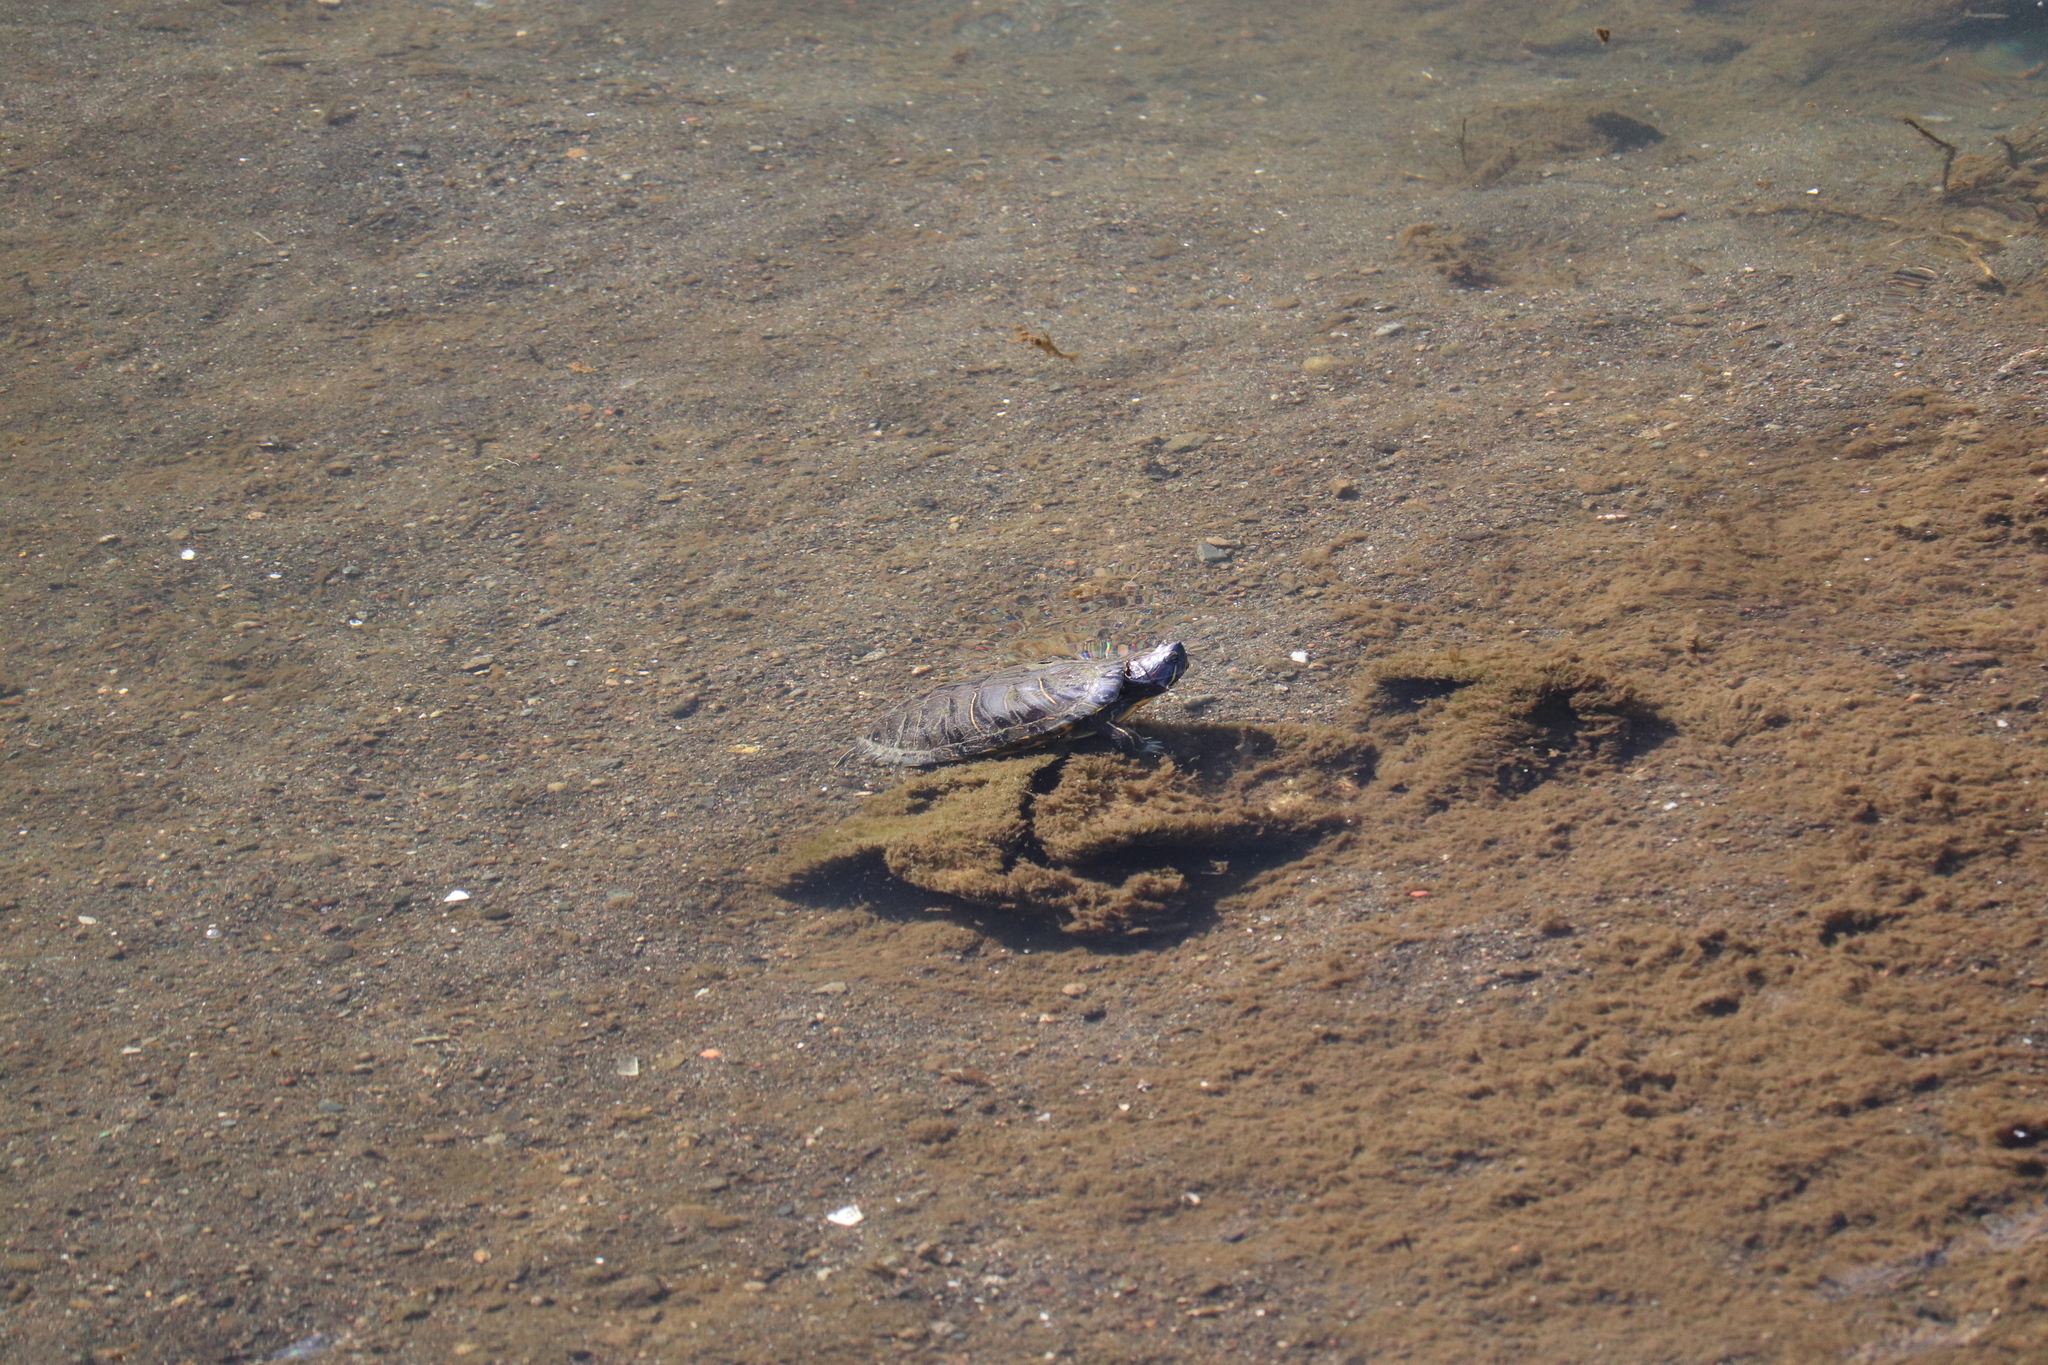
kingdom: Animalia
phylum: Chordata
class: Testudines
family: Emydidae
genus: Trachemys
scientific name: Trachemys scripta
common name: Slider
